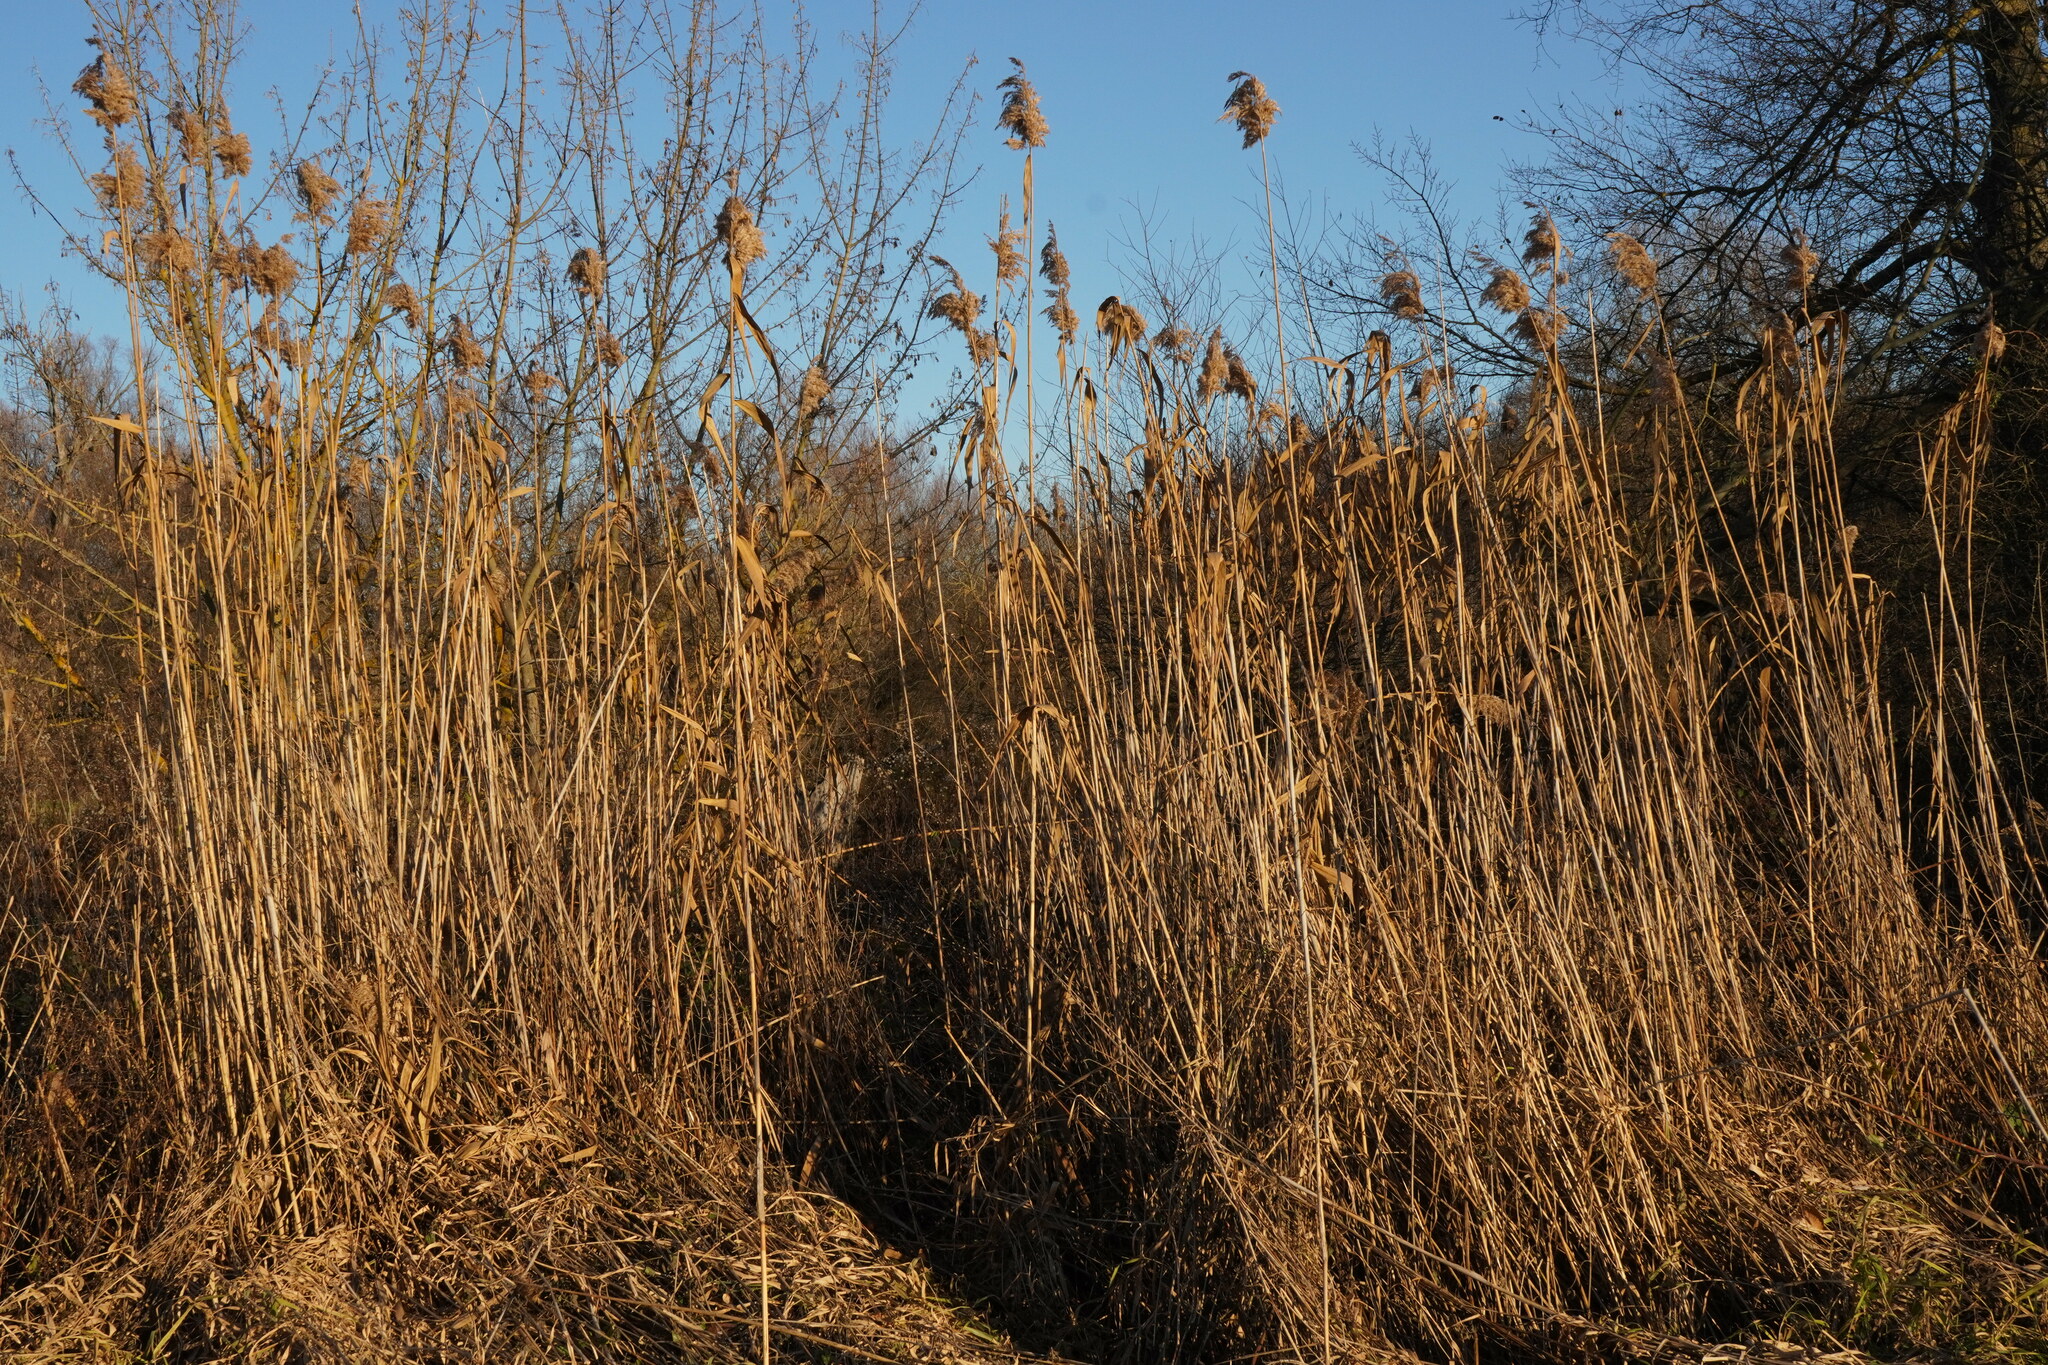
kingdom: Plantae
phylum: Tracheophyta
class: Liliopsida
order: Poales
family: Poaceae
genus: Phragmites
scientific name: Phragmites australis
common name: Common reed
